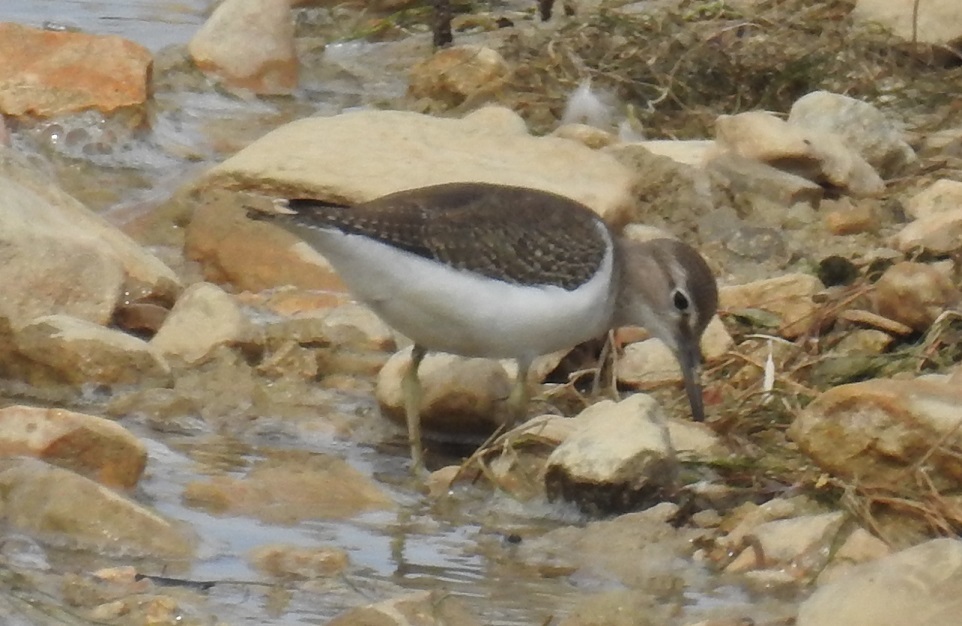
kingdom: Animalia
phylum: Chordata
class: Aves
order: Charadriiformes
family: Scolopacidae
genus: Actitis
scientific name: Actitis hypoleucos
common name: Common sandpiper
